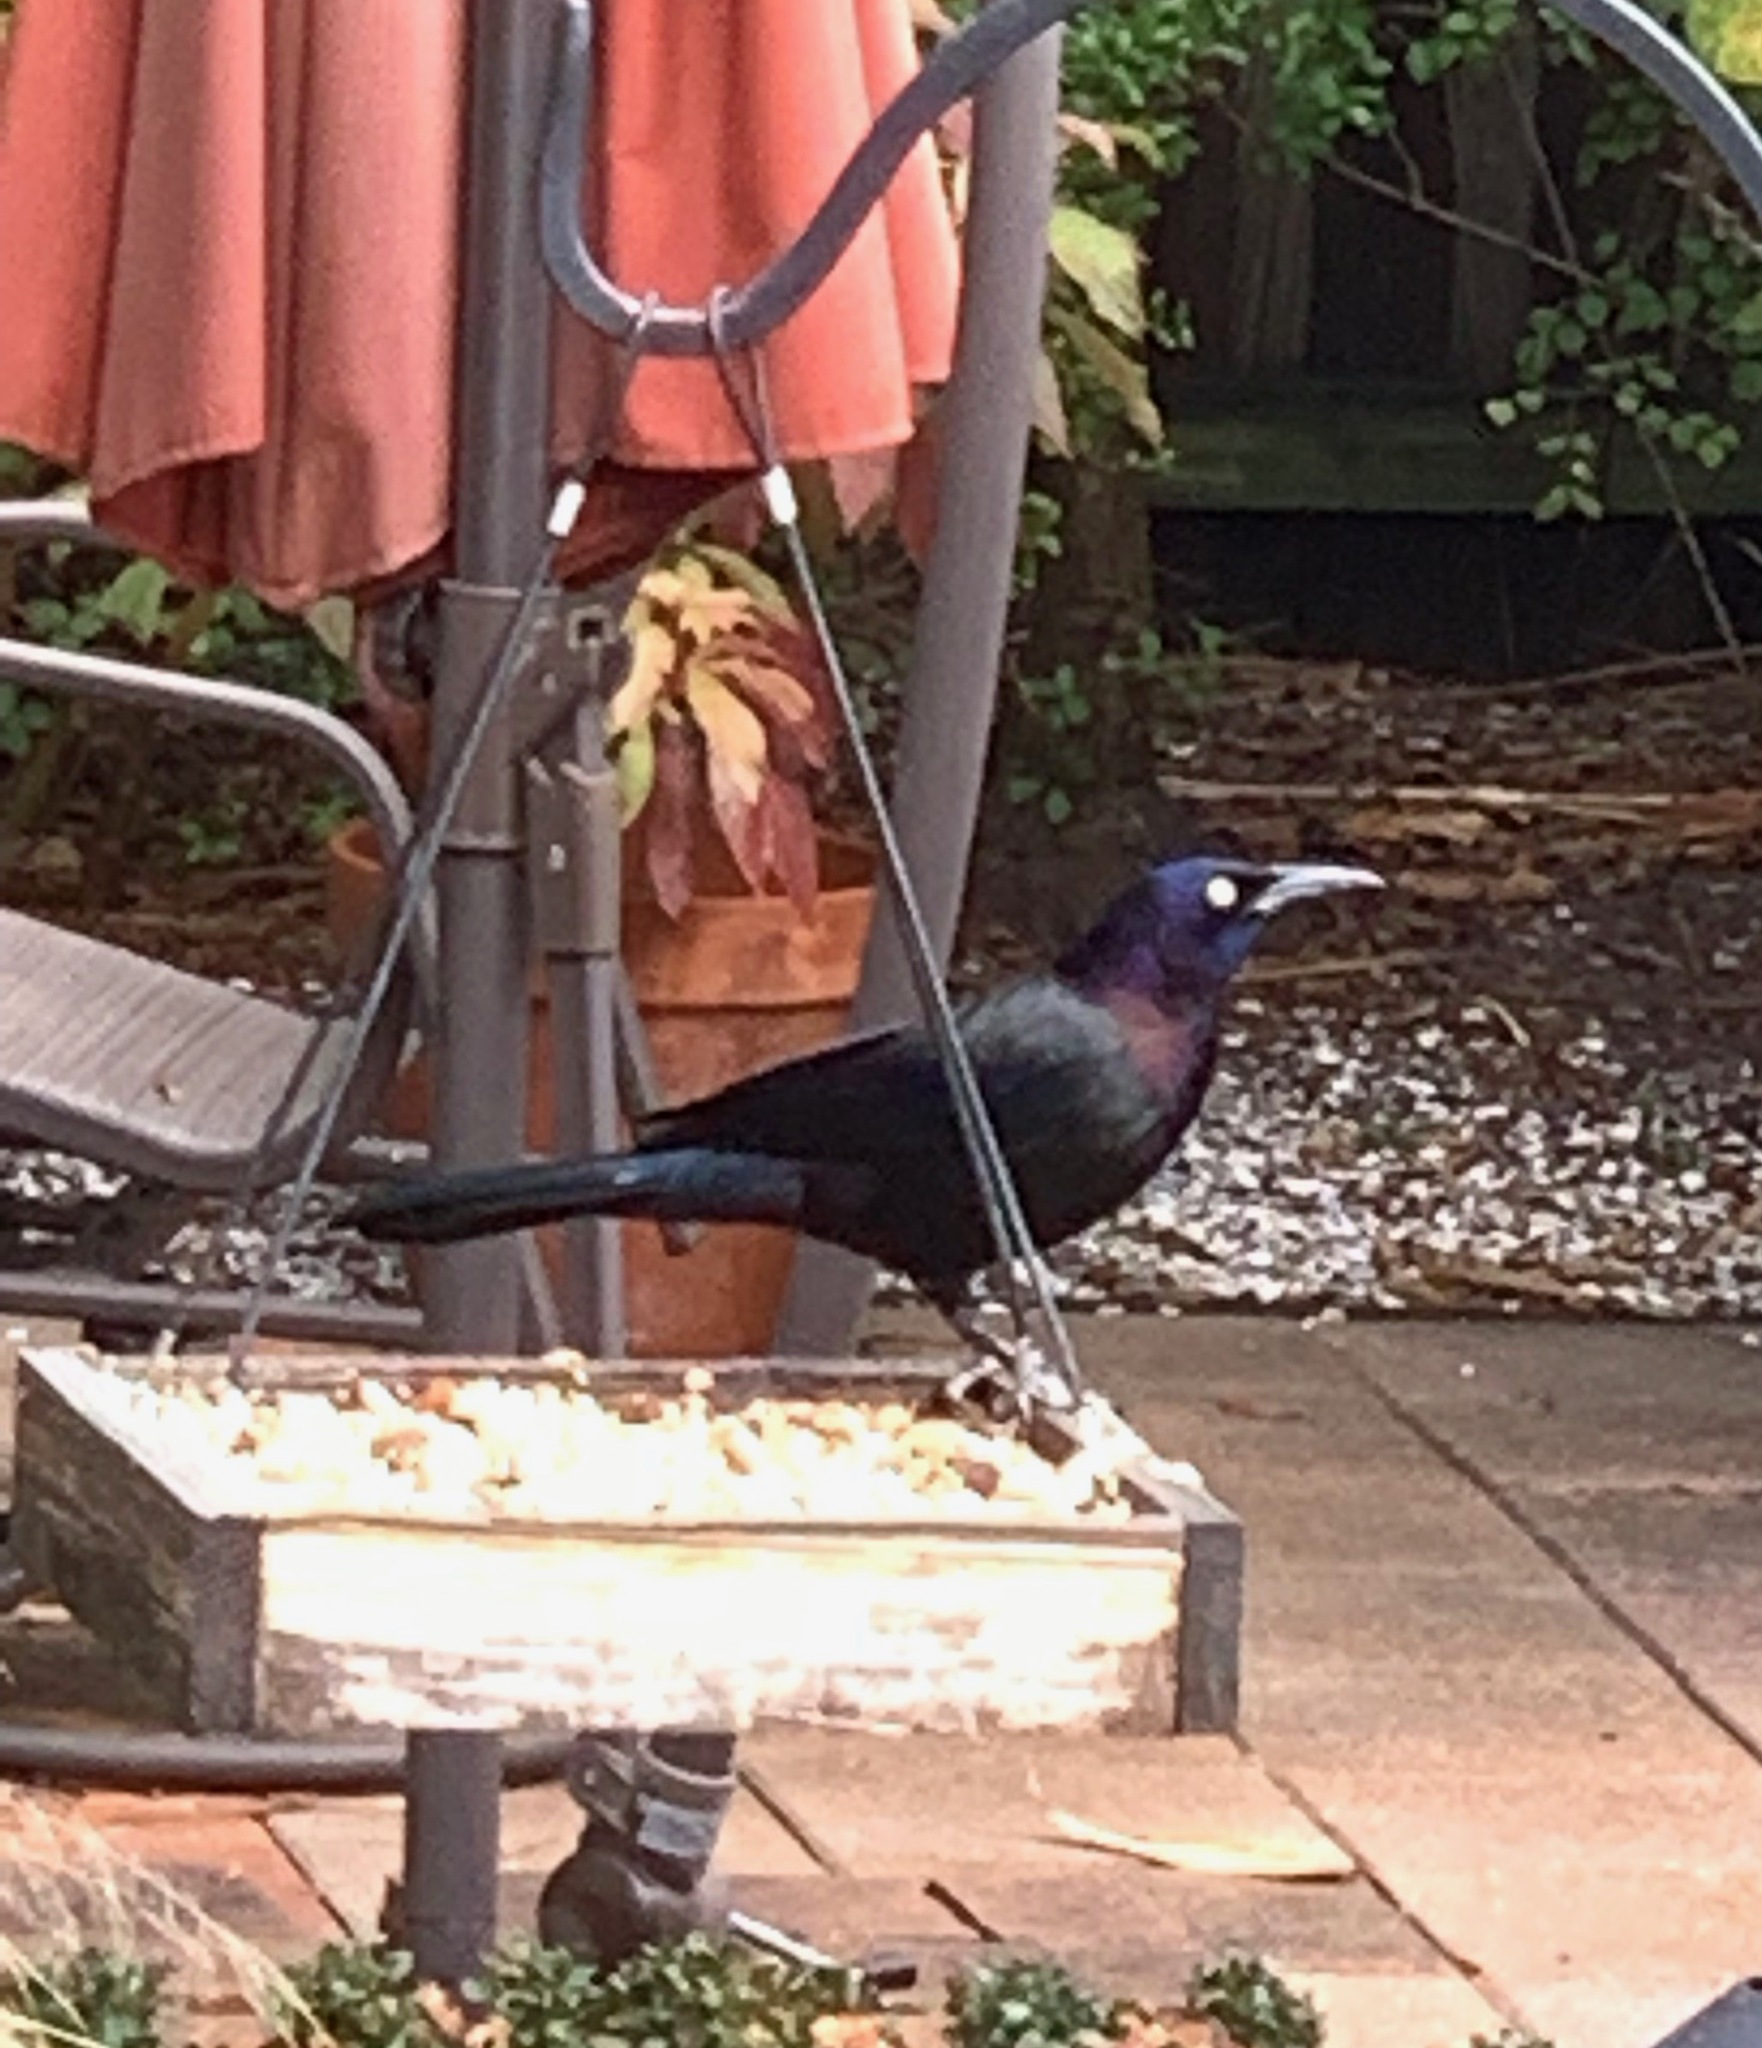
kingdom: Animalia
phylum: Chordata
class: Aves
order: Passeriformes
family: Icteridae
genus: Quiscalus
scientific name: Quiscalus quiscula
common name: Common grackle
